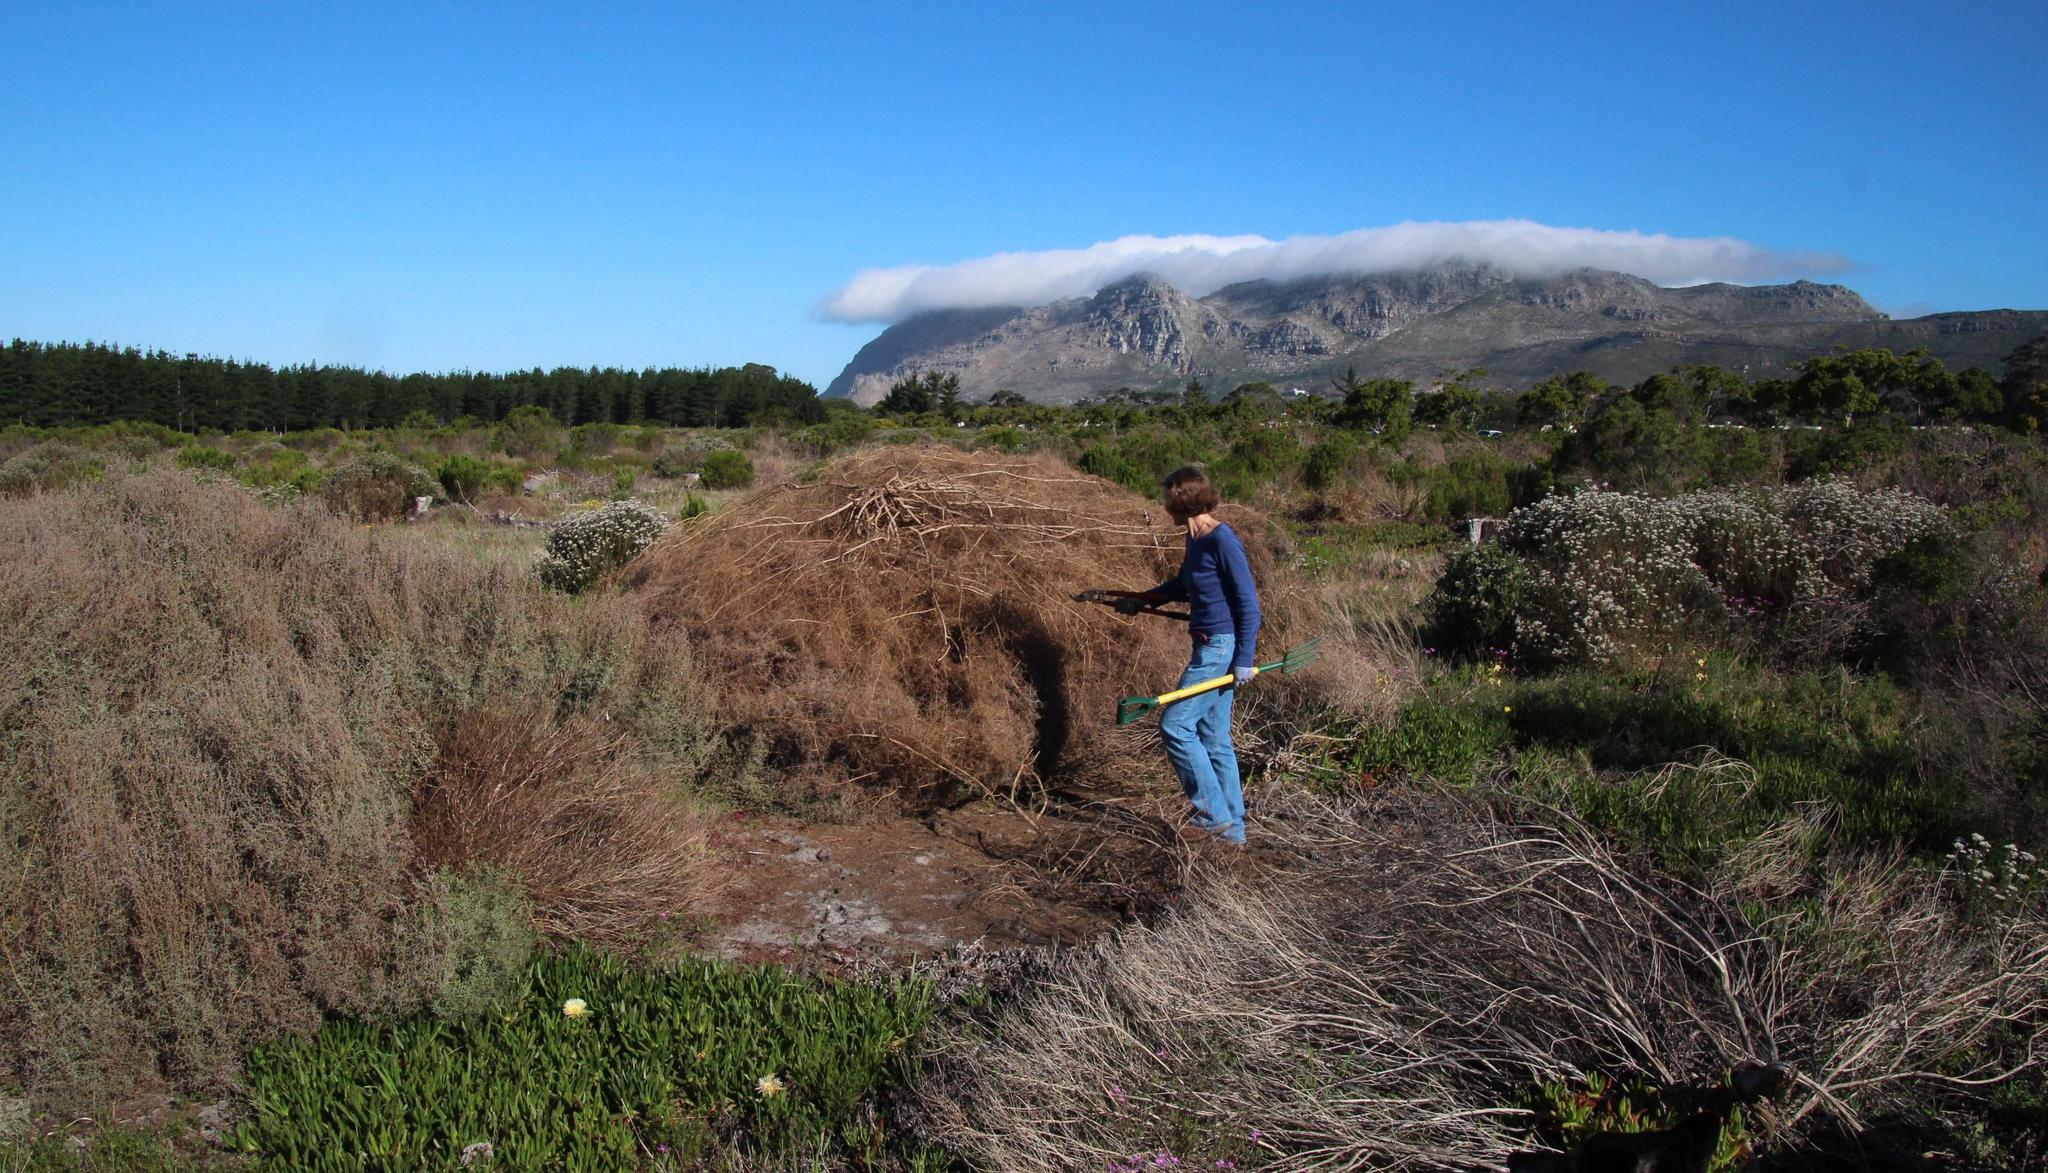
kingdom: Plantae
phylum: Tracheophyta
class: Magnoliopsida
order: Asterales
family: Asteraceae
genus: Seriphium
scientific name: Seriphium plumosum
